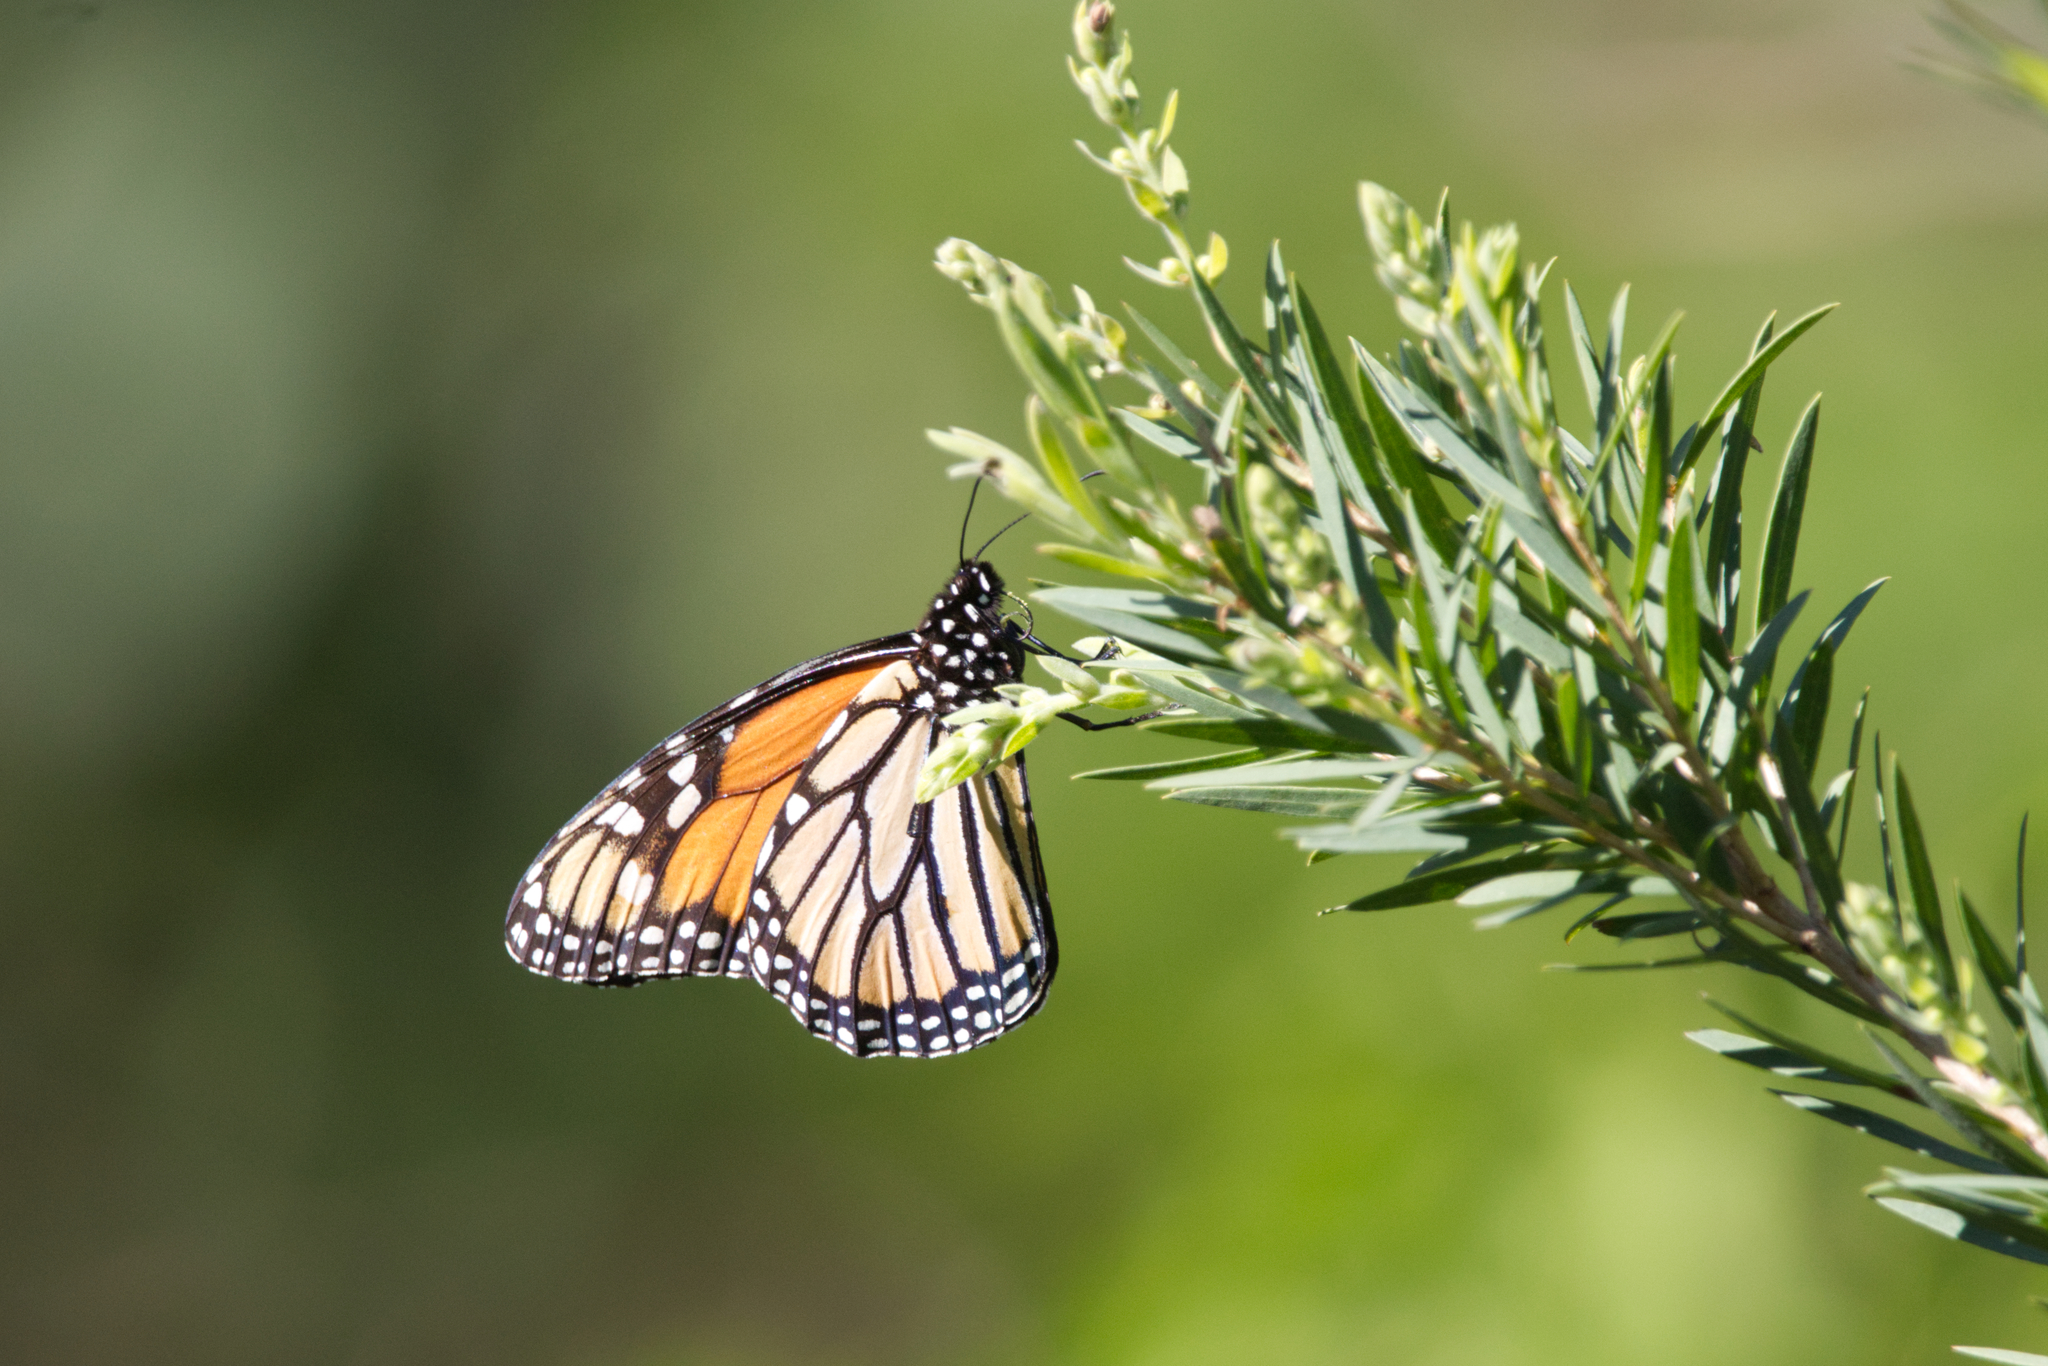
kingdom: Animalia
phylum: Arthropoda
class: Insecta
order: Lepidoptera
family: Nymphalidae
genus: Danaus
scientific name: Danaus plexippus
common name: Monarch
